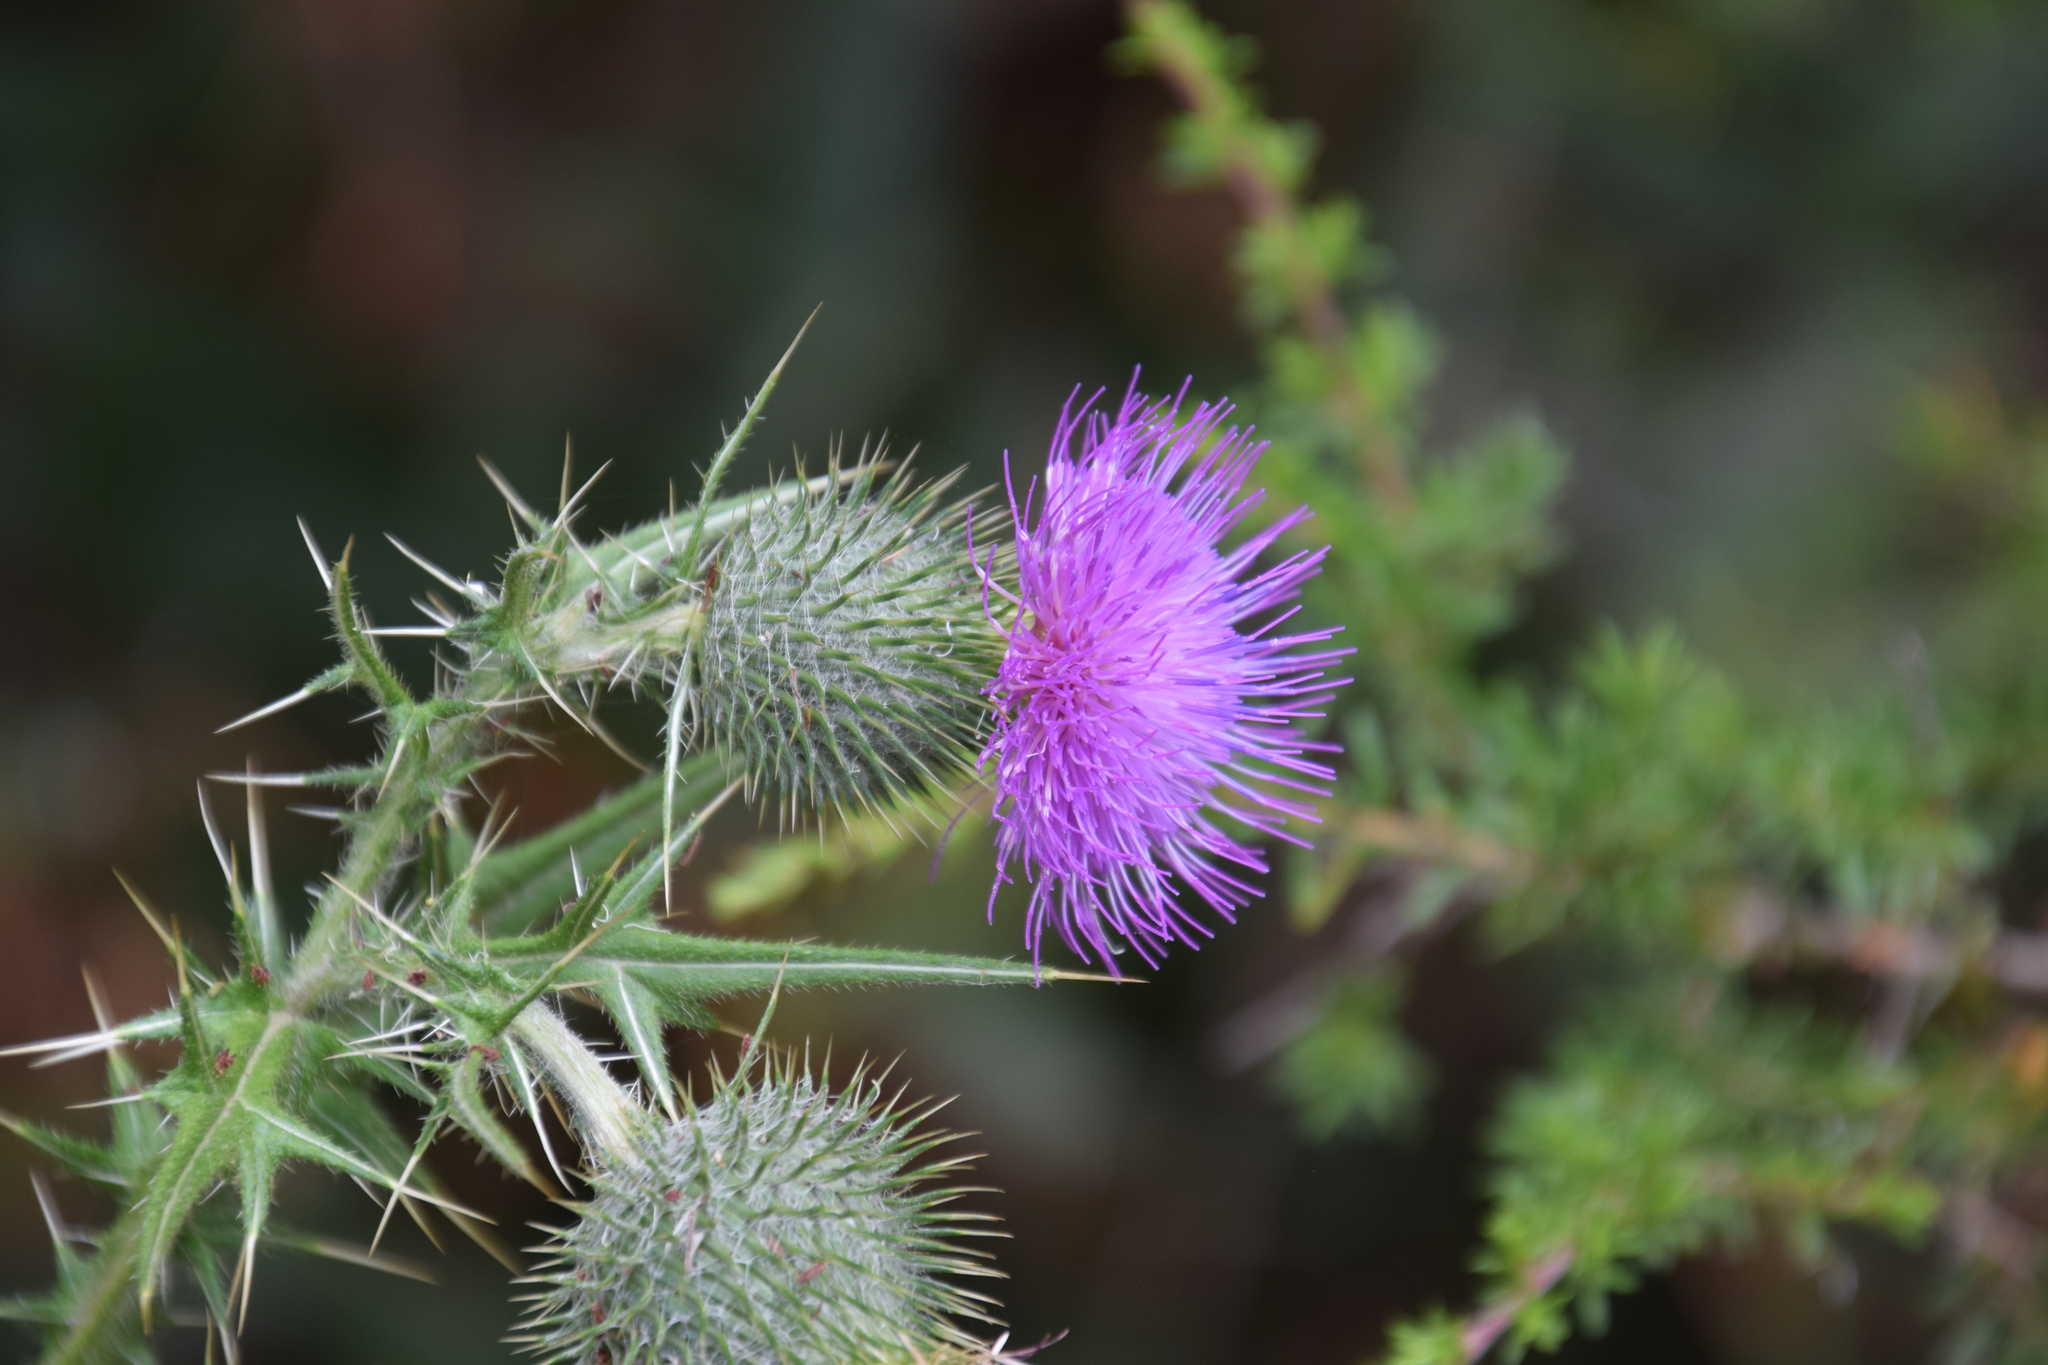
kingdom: Plantae
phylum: Tracheophyta
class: Magnoliopsida
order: Asterales
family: Asteraceae
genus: Cirsium
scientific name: Cirsium vulgare
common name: Bull thistle
